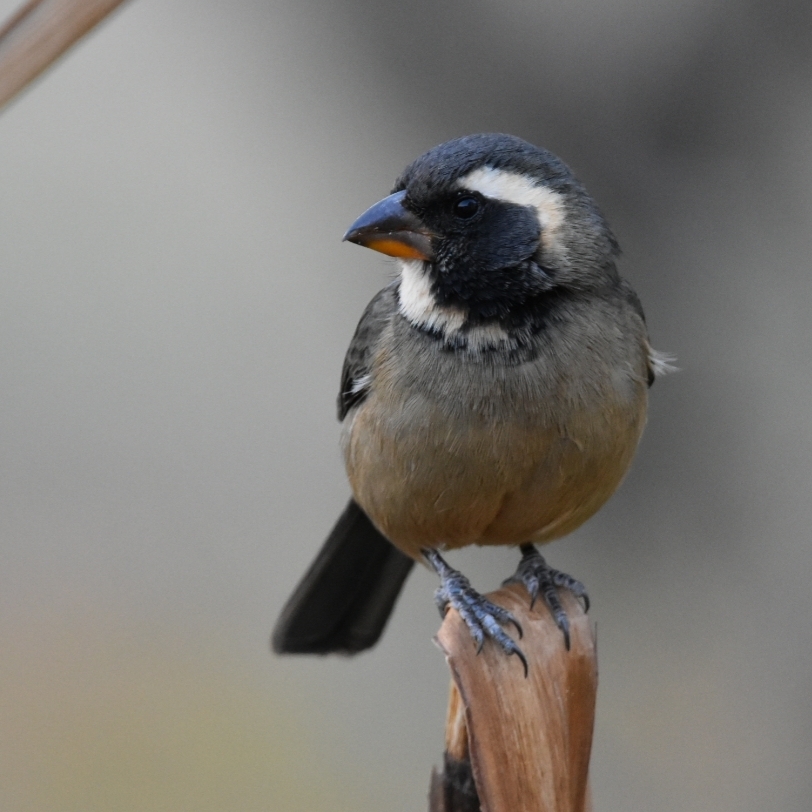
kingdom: Animalia
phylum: Chordata
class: Aves
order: Passeriformes
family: Thraupidae
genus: Saltator
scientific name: Saltator aurantiirostris
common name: Golden-billed saltator
